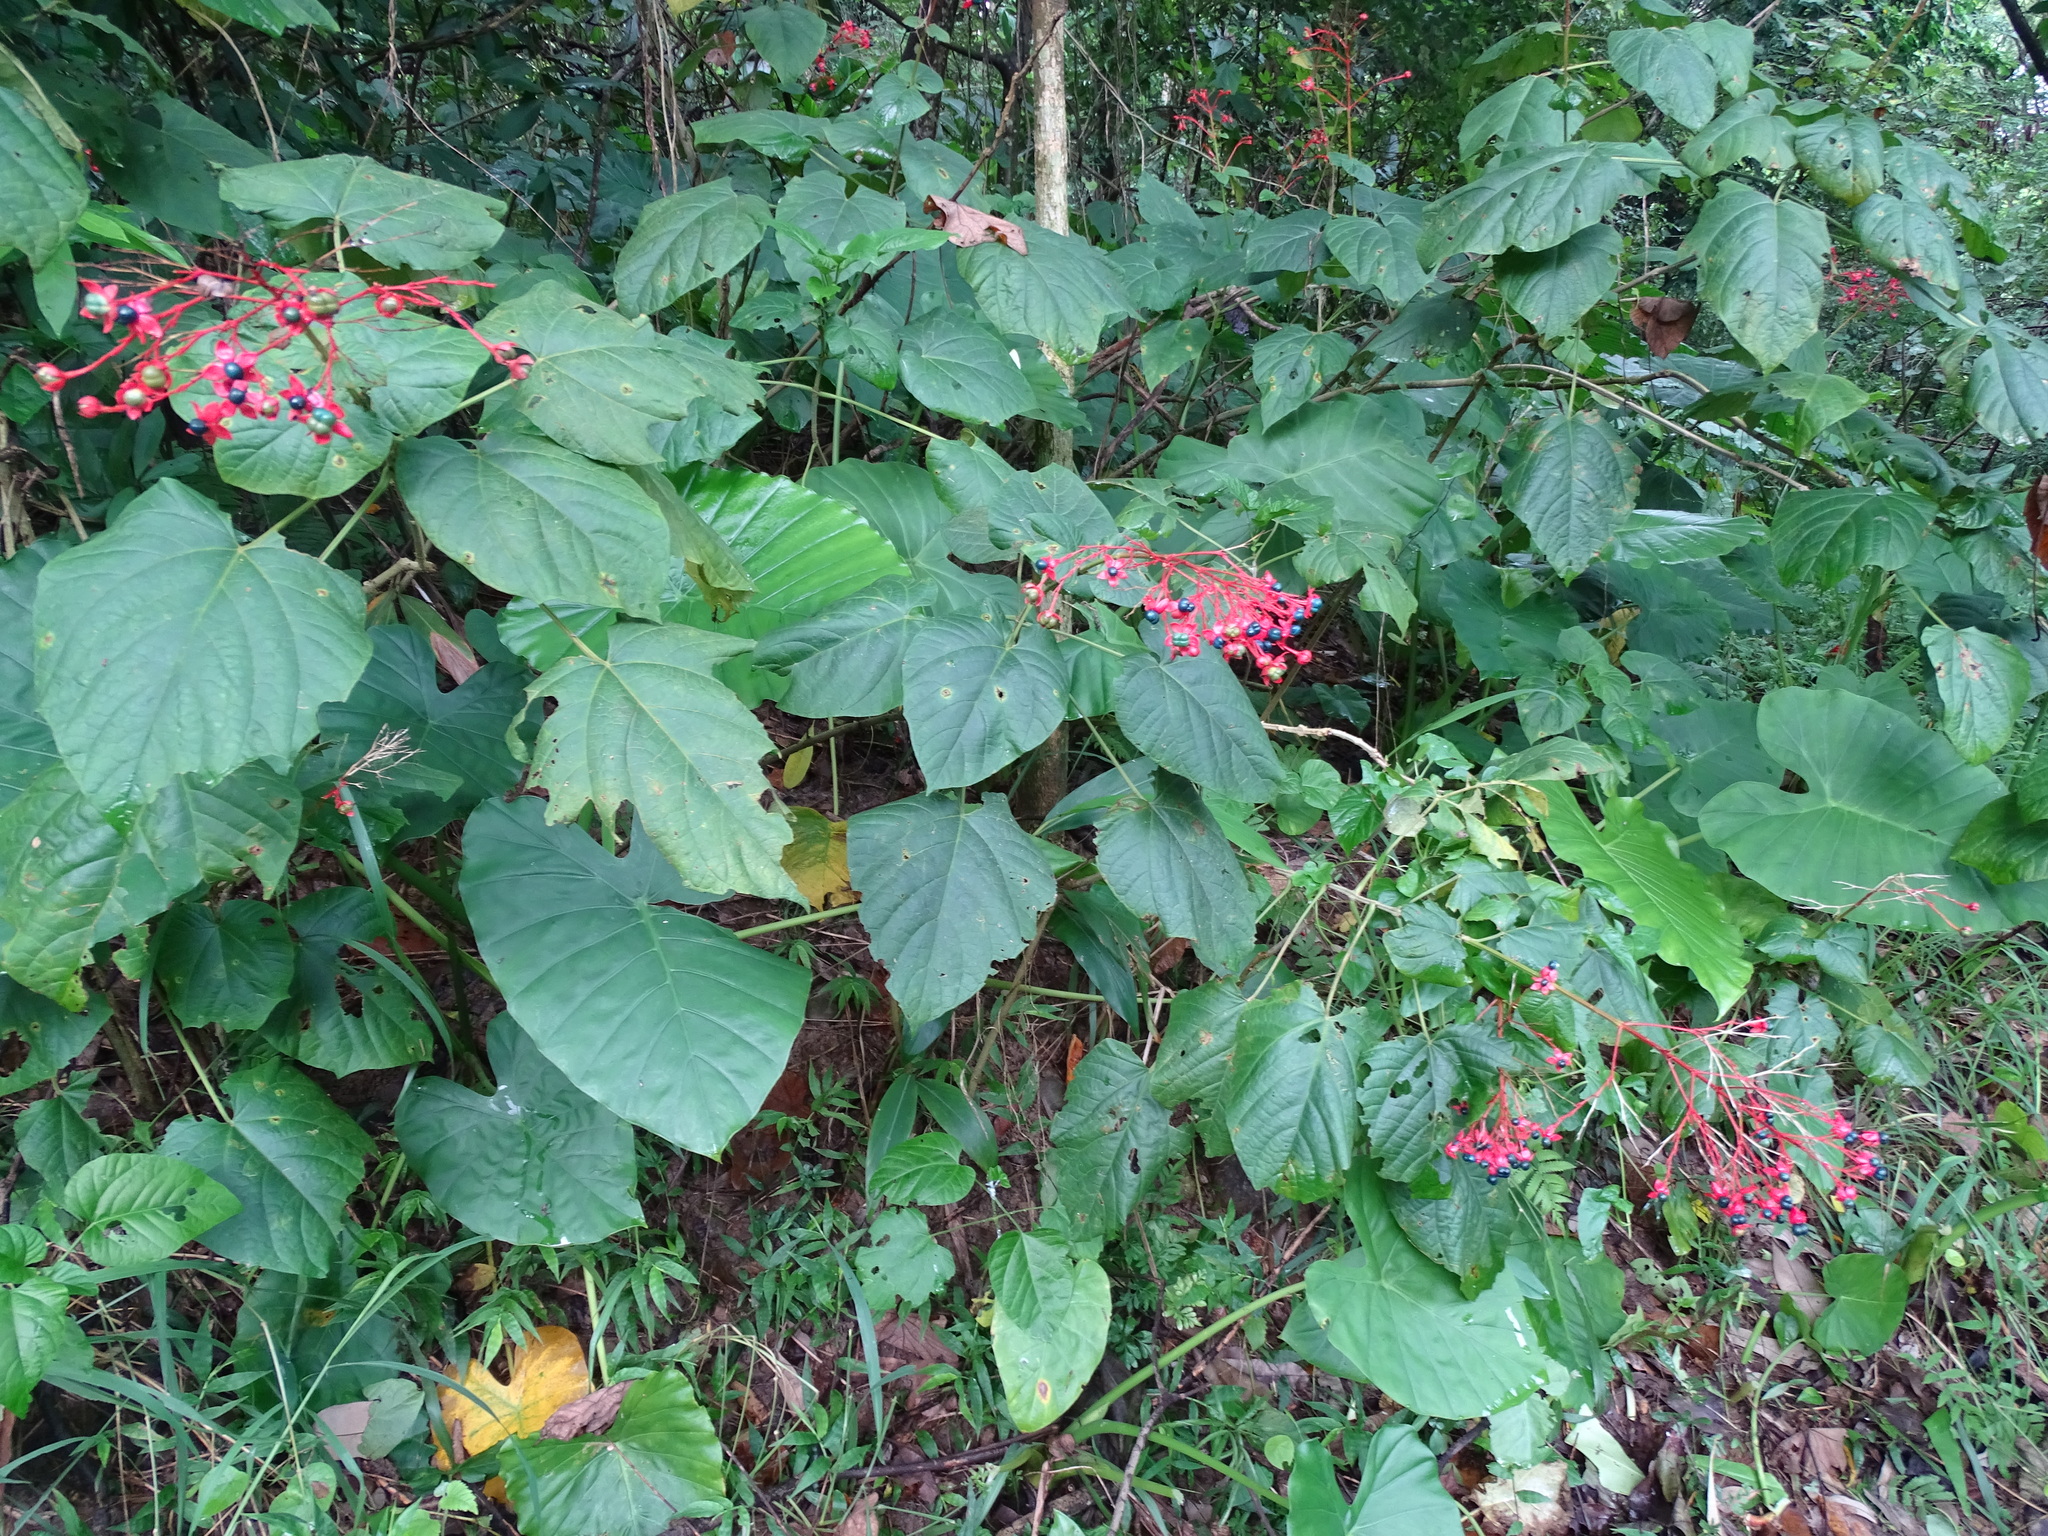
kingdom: Plantae
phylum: Tracheophyta
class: Magnoliopsida
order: Lamiales
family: Lamiaceae
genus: Clerodendrum
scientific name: Clerodendrum japonicum
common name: Japanese glorybower
